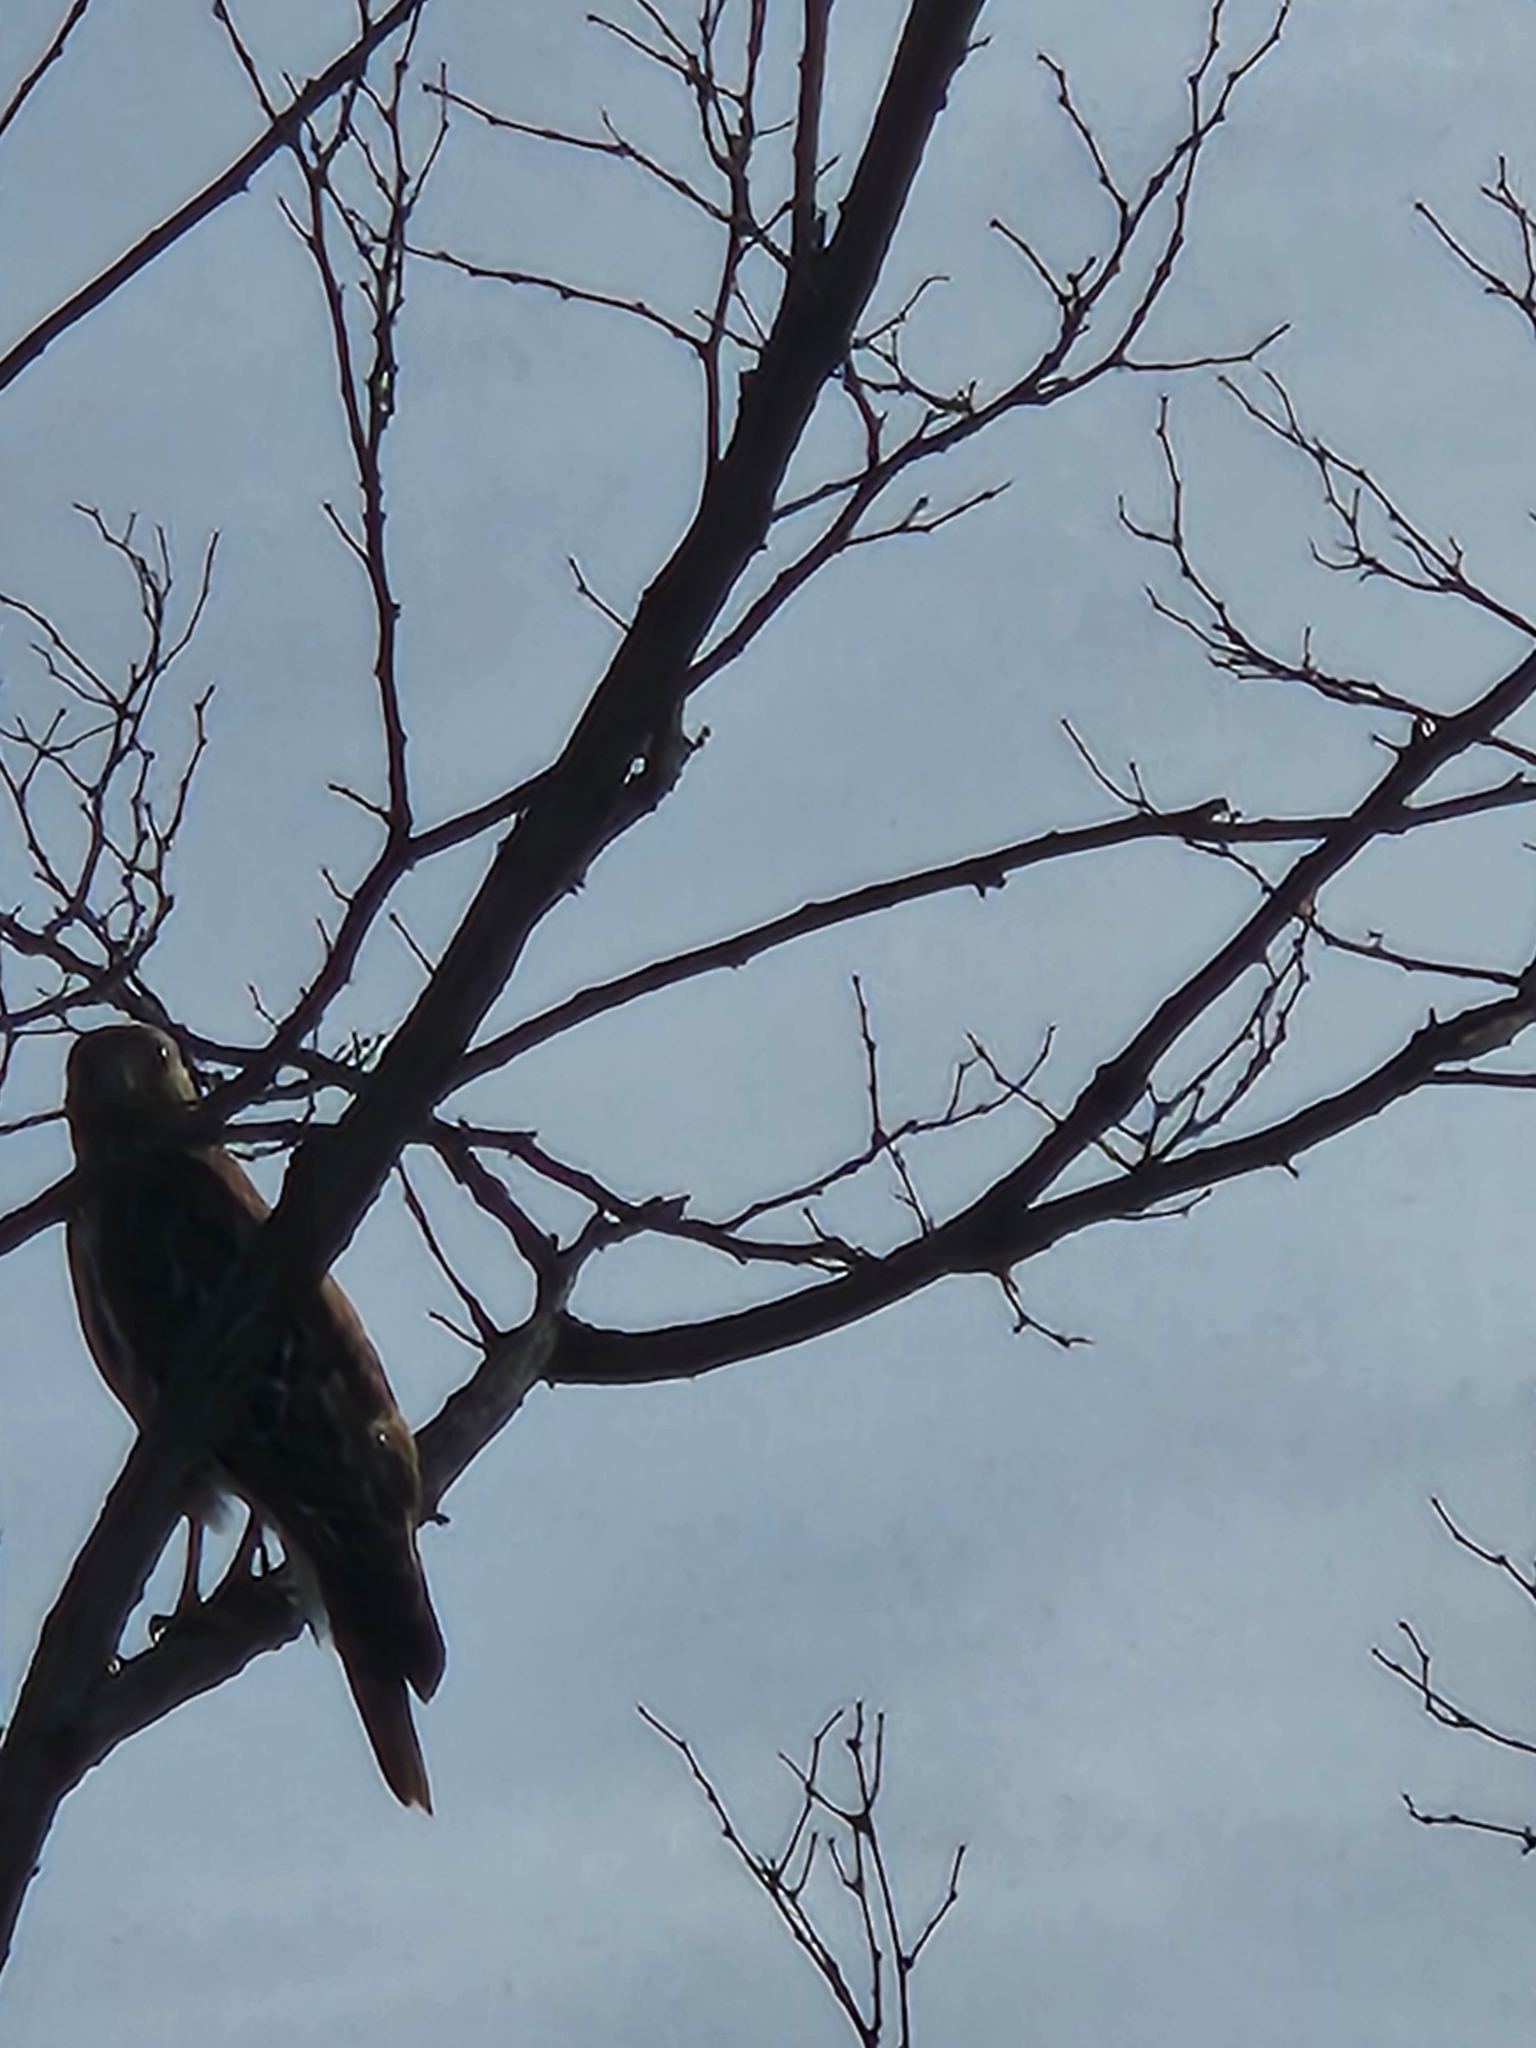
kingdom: Animalia
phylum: Chordata
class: Aves
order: Accipitriformes
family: Accipitridae
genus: Buteo
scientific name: Buteo lineatus
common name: Red-shouldered hawk
